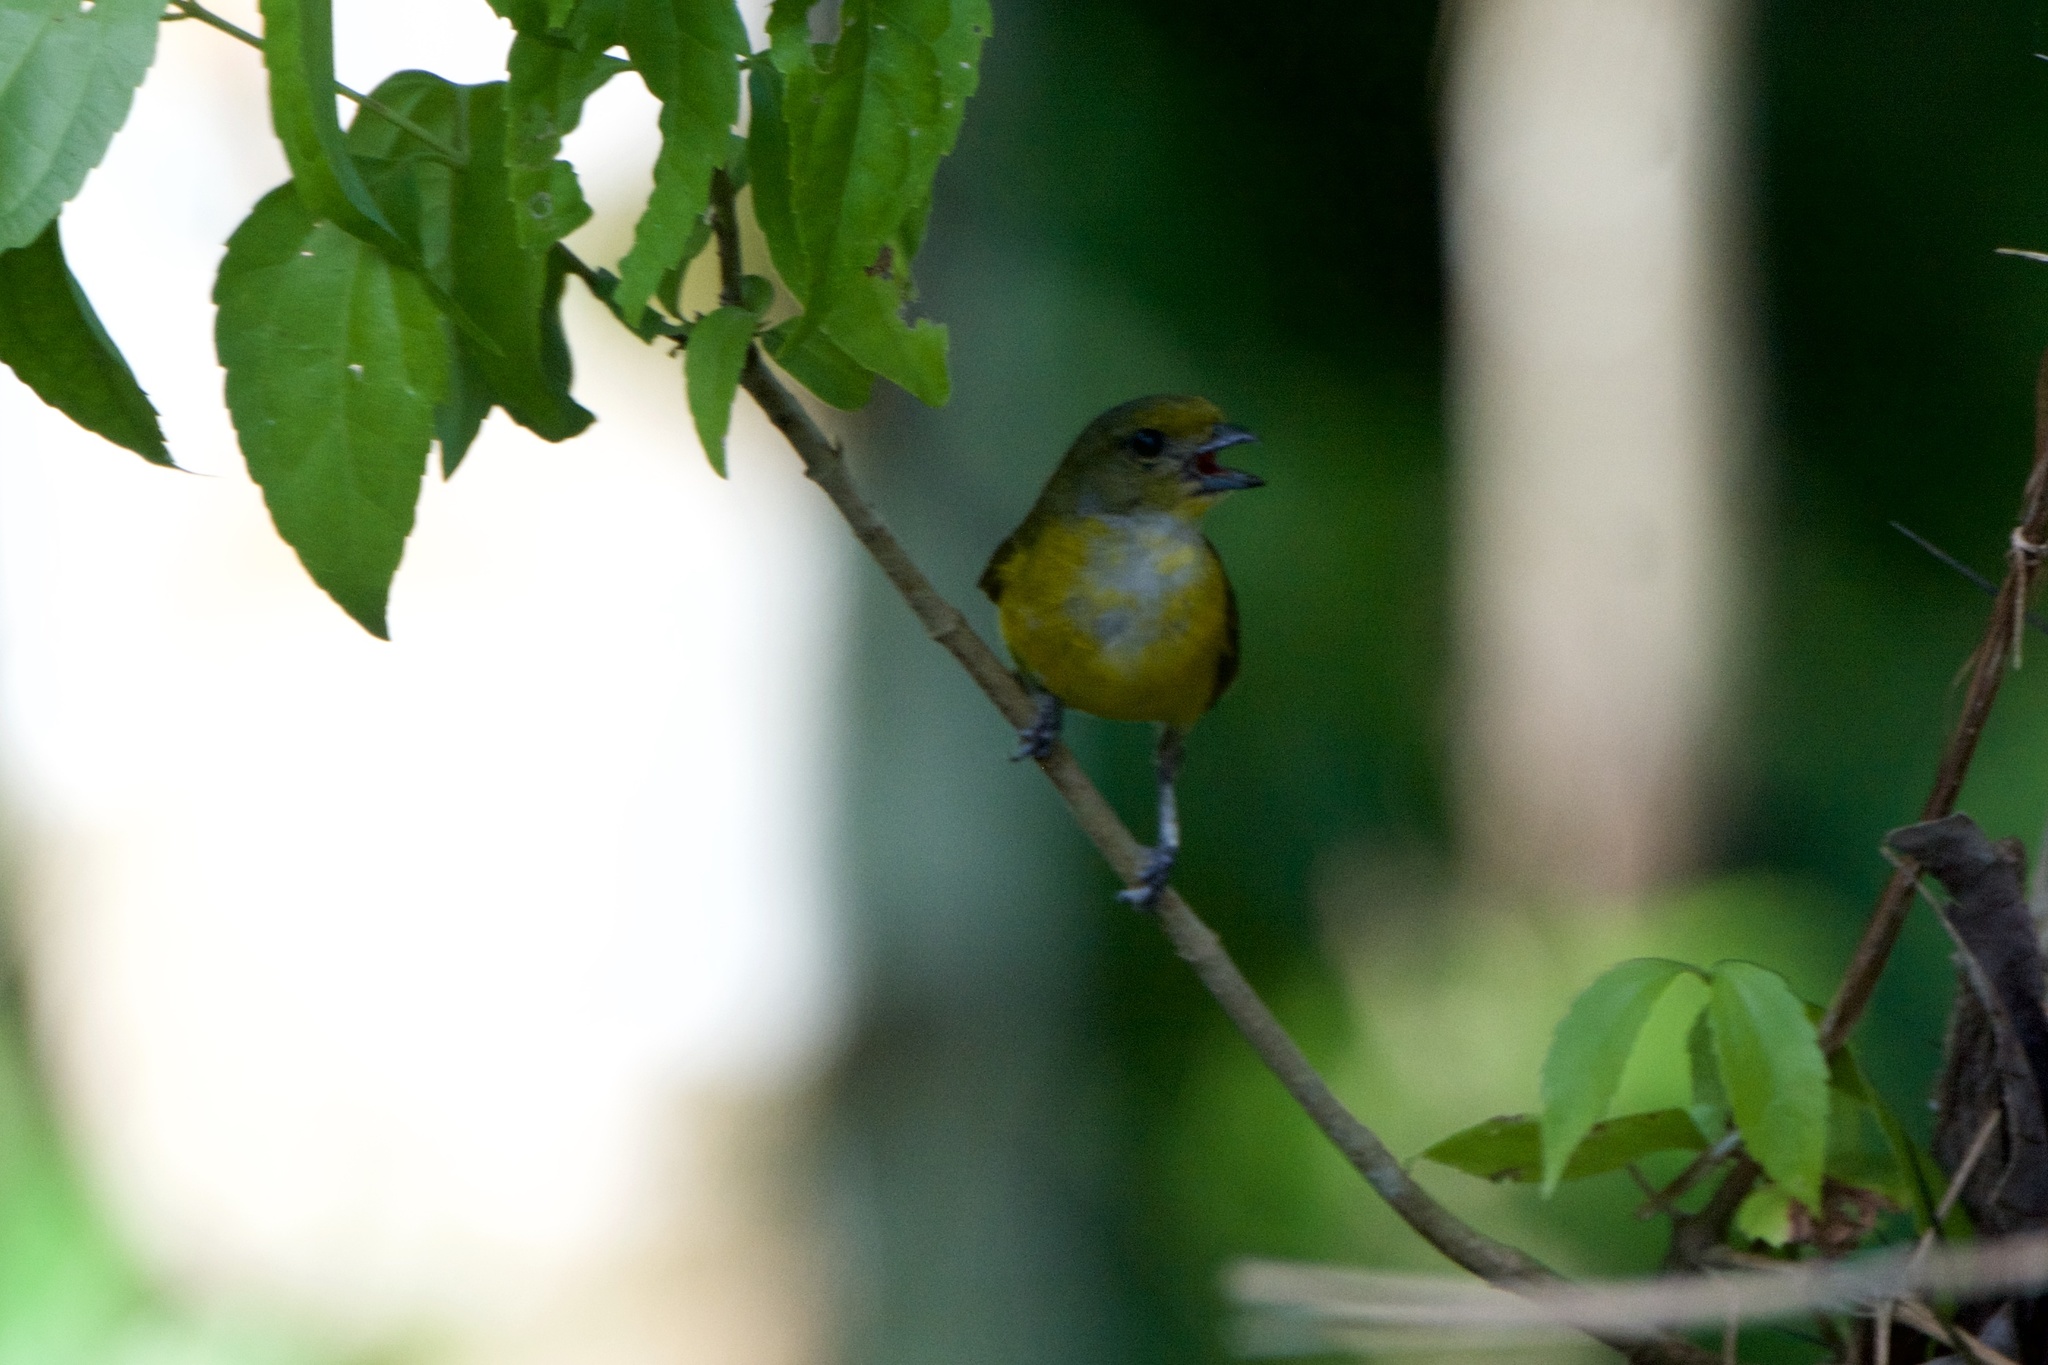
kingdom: Animalia
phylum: Chordata
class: Aves
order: Passeriformes
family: Fringillidae
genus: Euphonia
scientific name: Euphonia hirundinacea
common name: Yellow-throated euphonia
